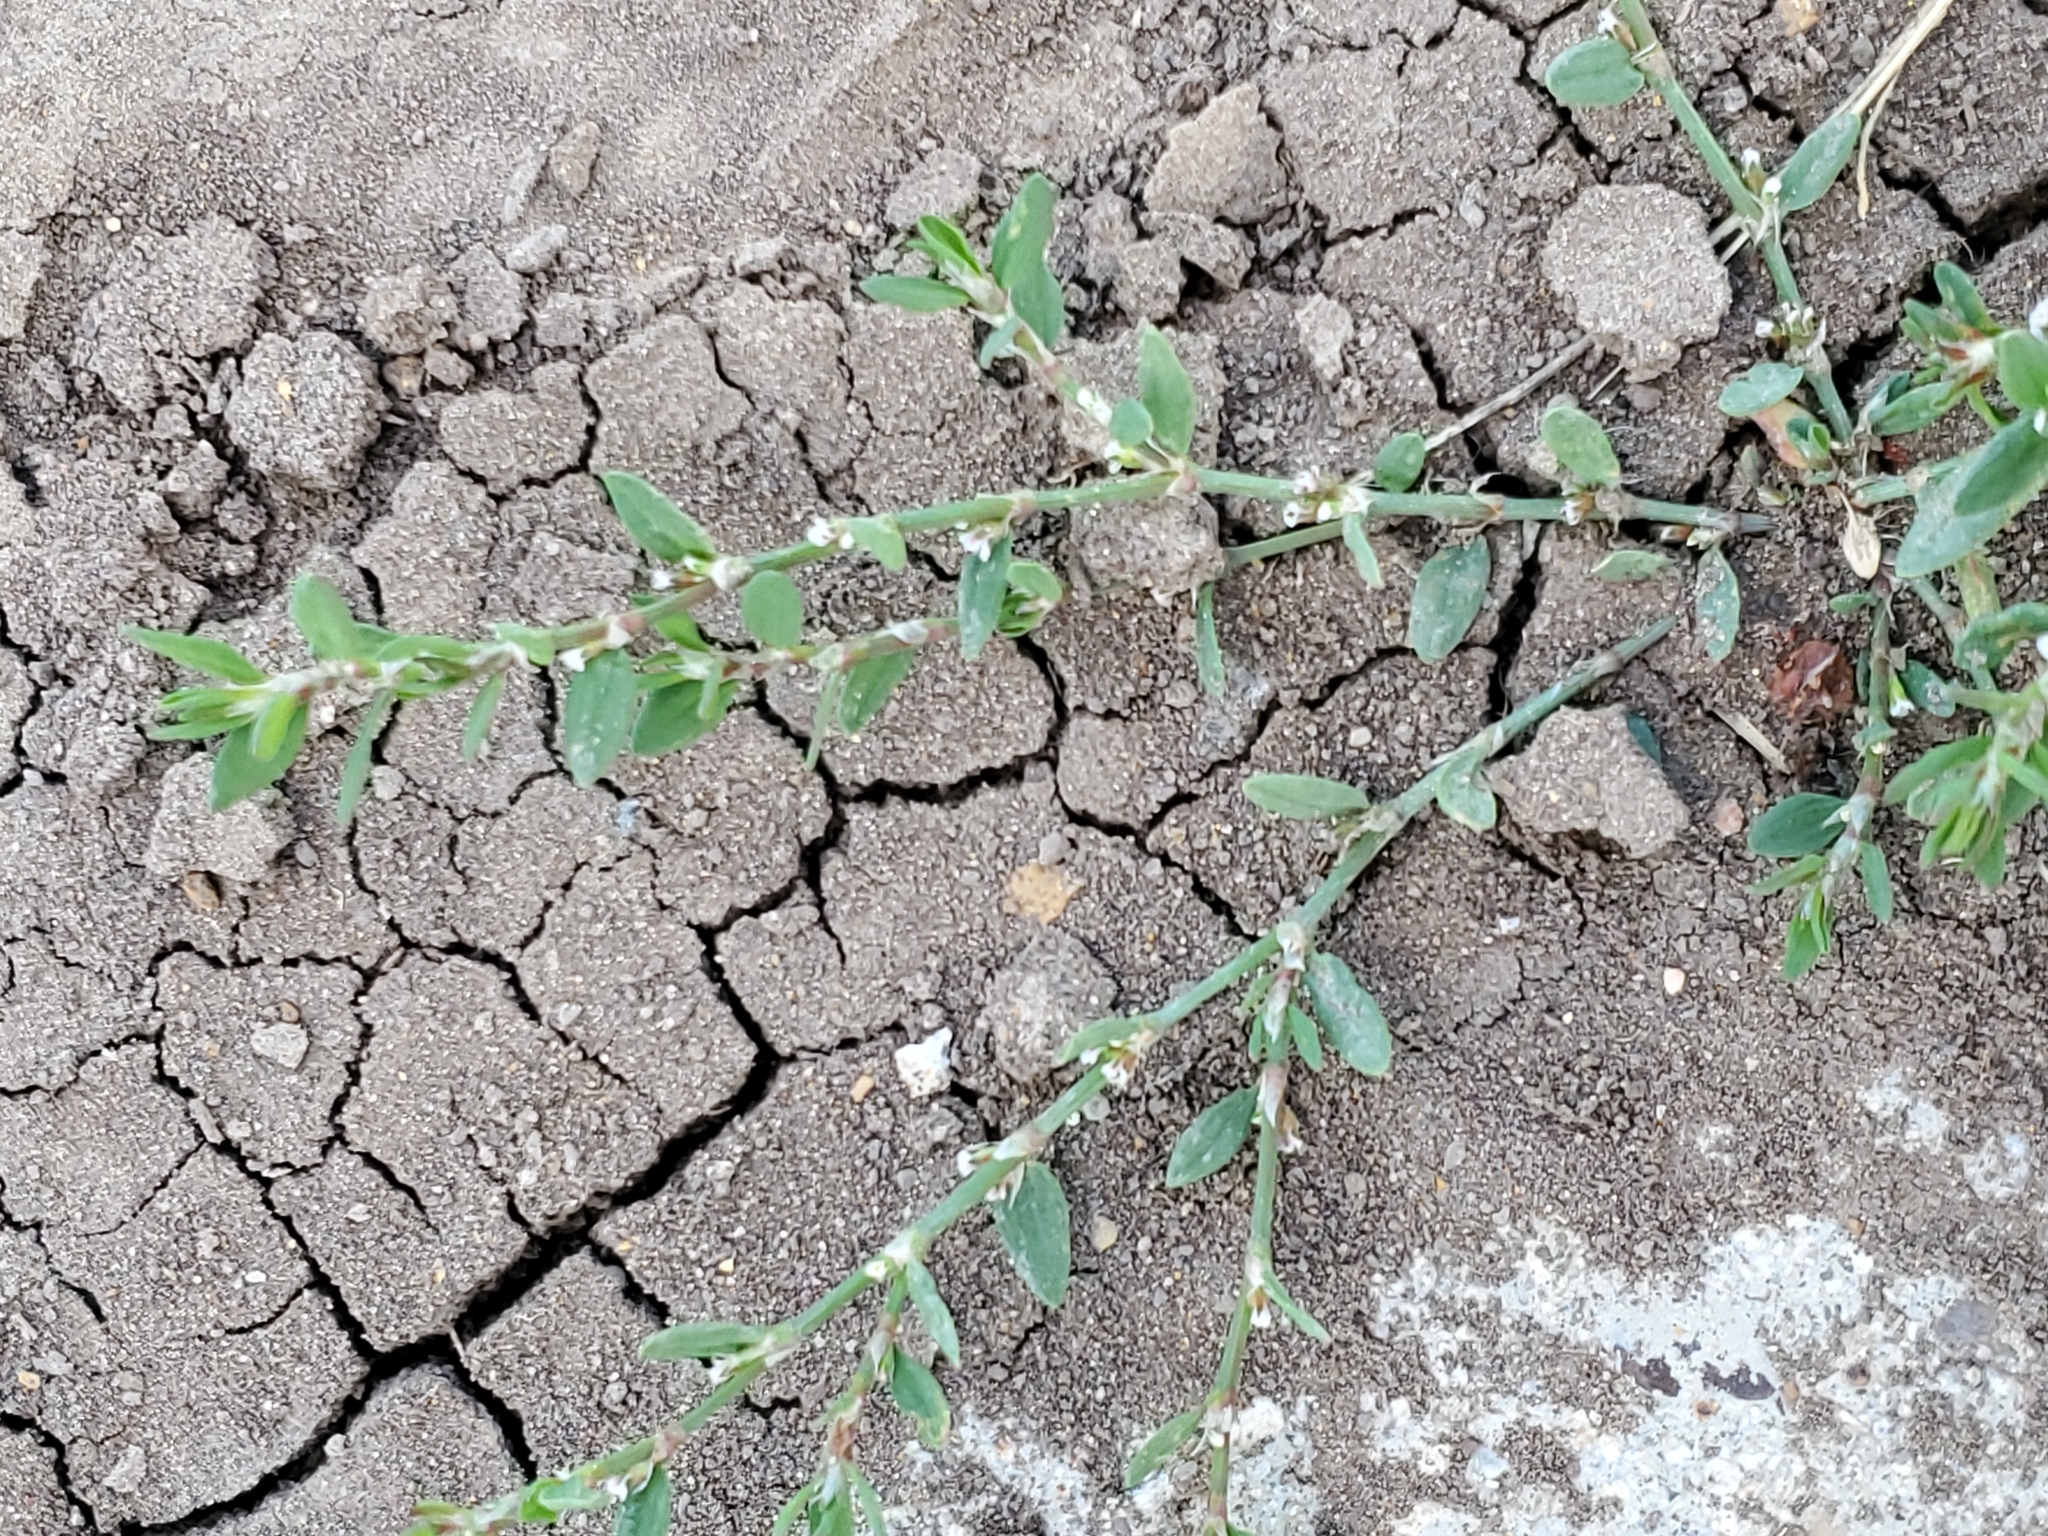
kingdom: Plantae
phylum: Tracheophyta
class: Magnoliopsida
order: Caryophyllales
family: Polygonaceae
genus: Polygonum
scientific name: Polygonum aviculare
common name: Prostrate knotweed
